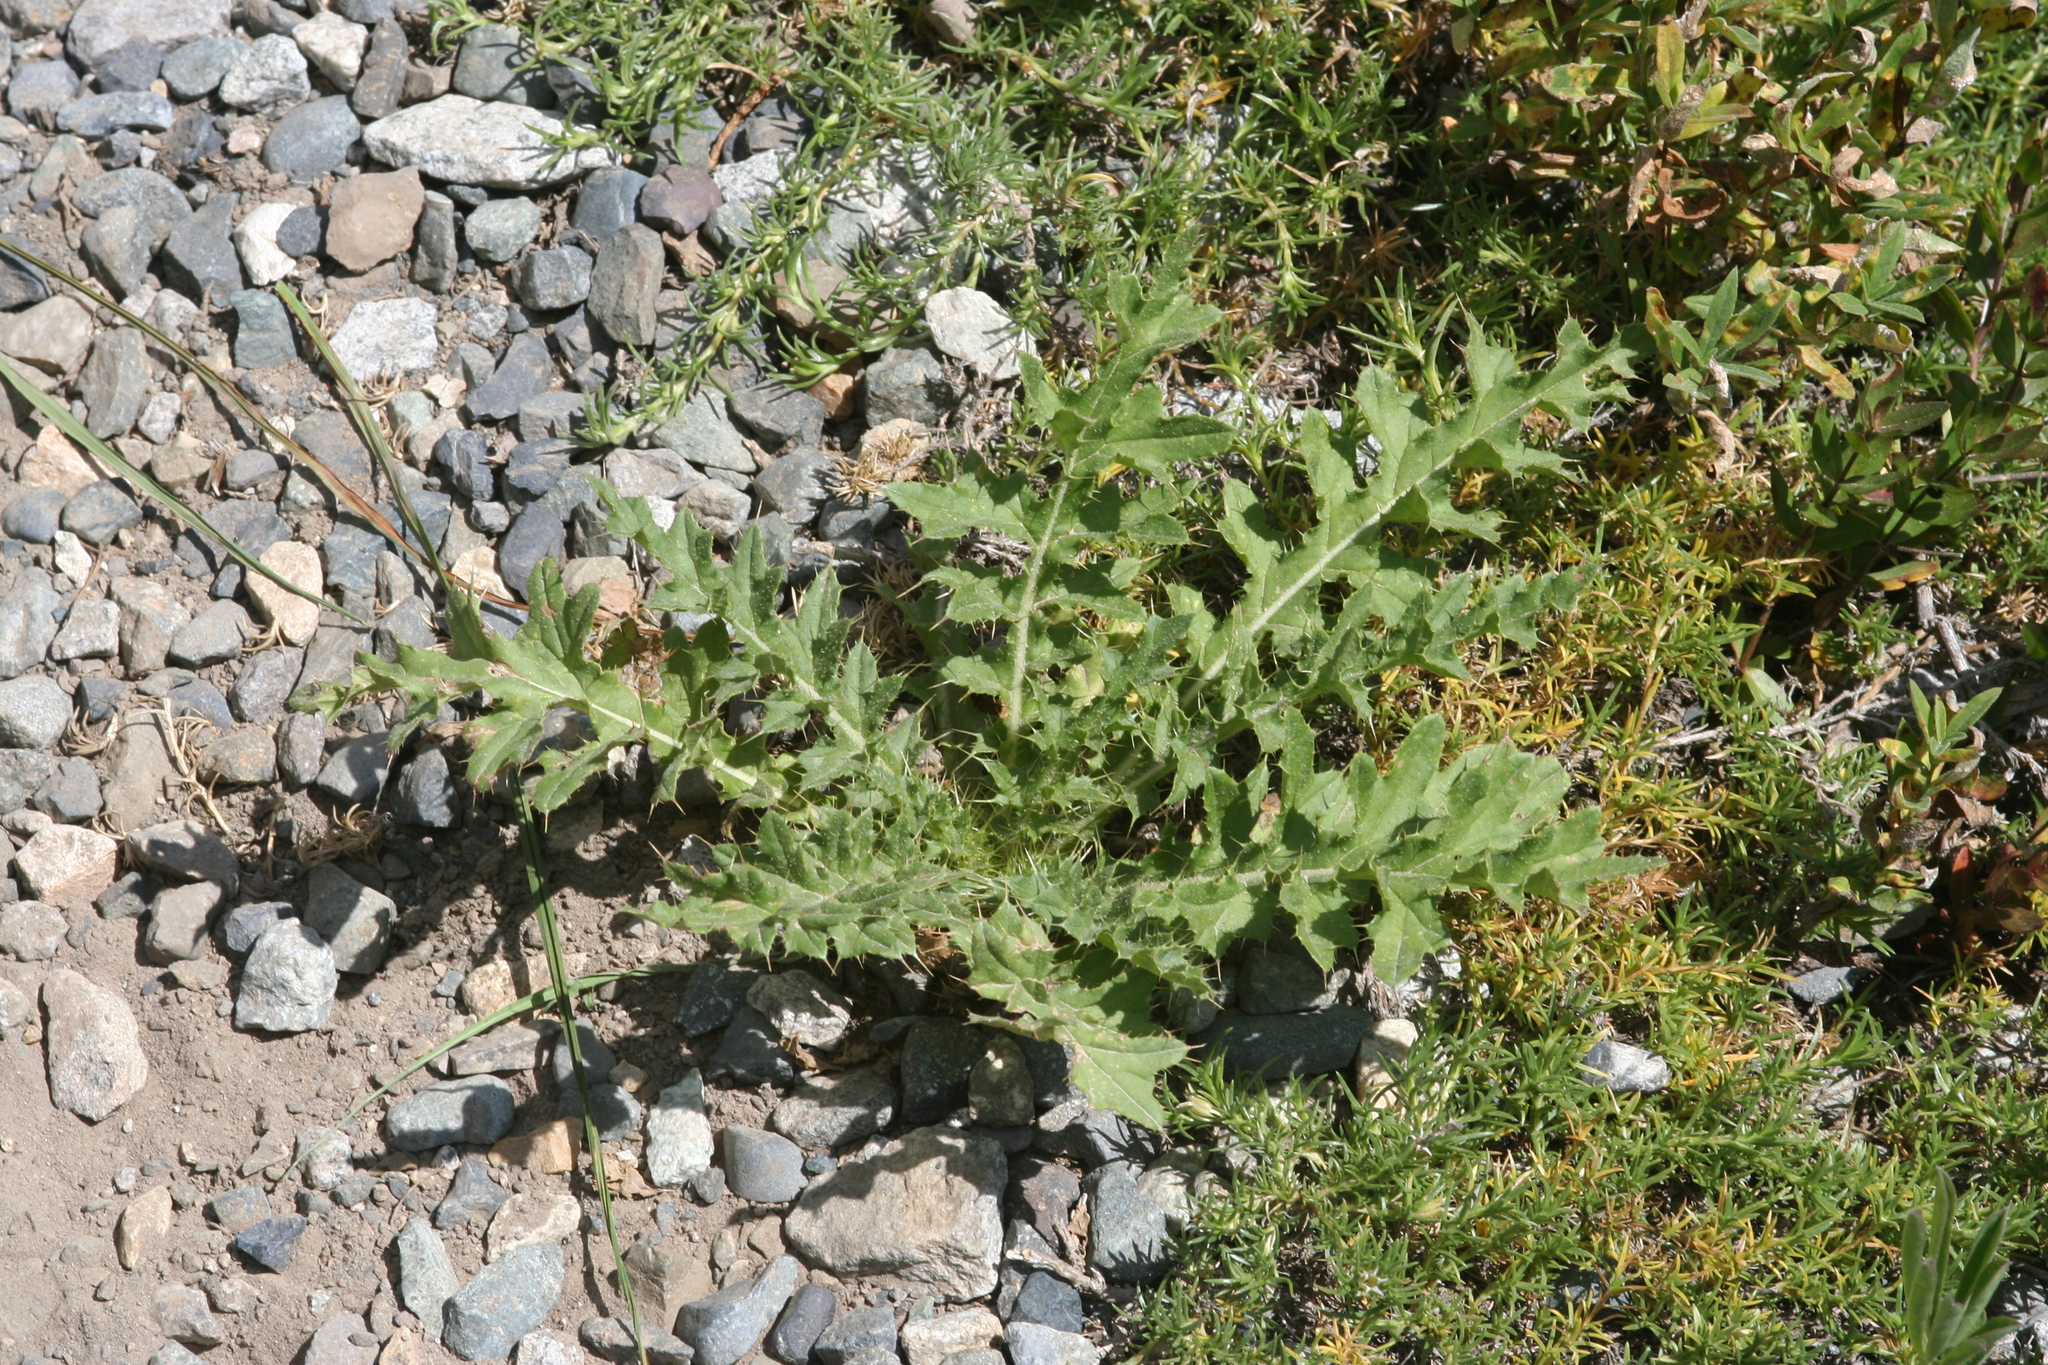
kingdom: Plantae
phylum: Tracheophyta
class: Magnoliopsida
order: Asterales
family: Asteraceae
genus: Cirsium
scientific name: Cirsium edule
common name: Indian thistle
